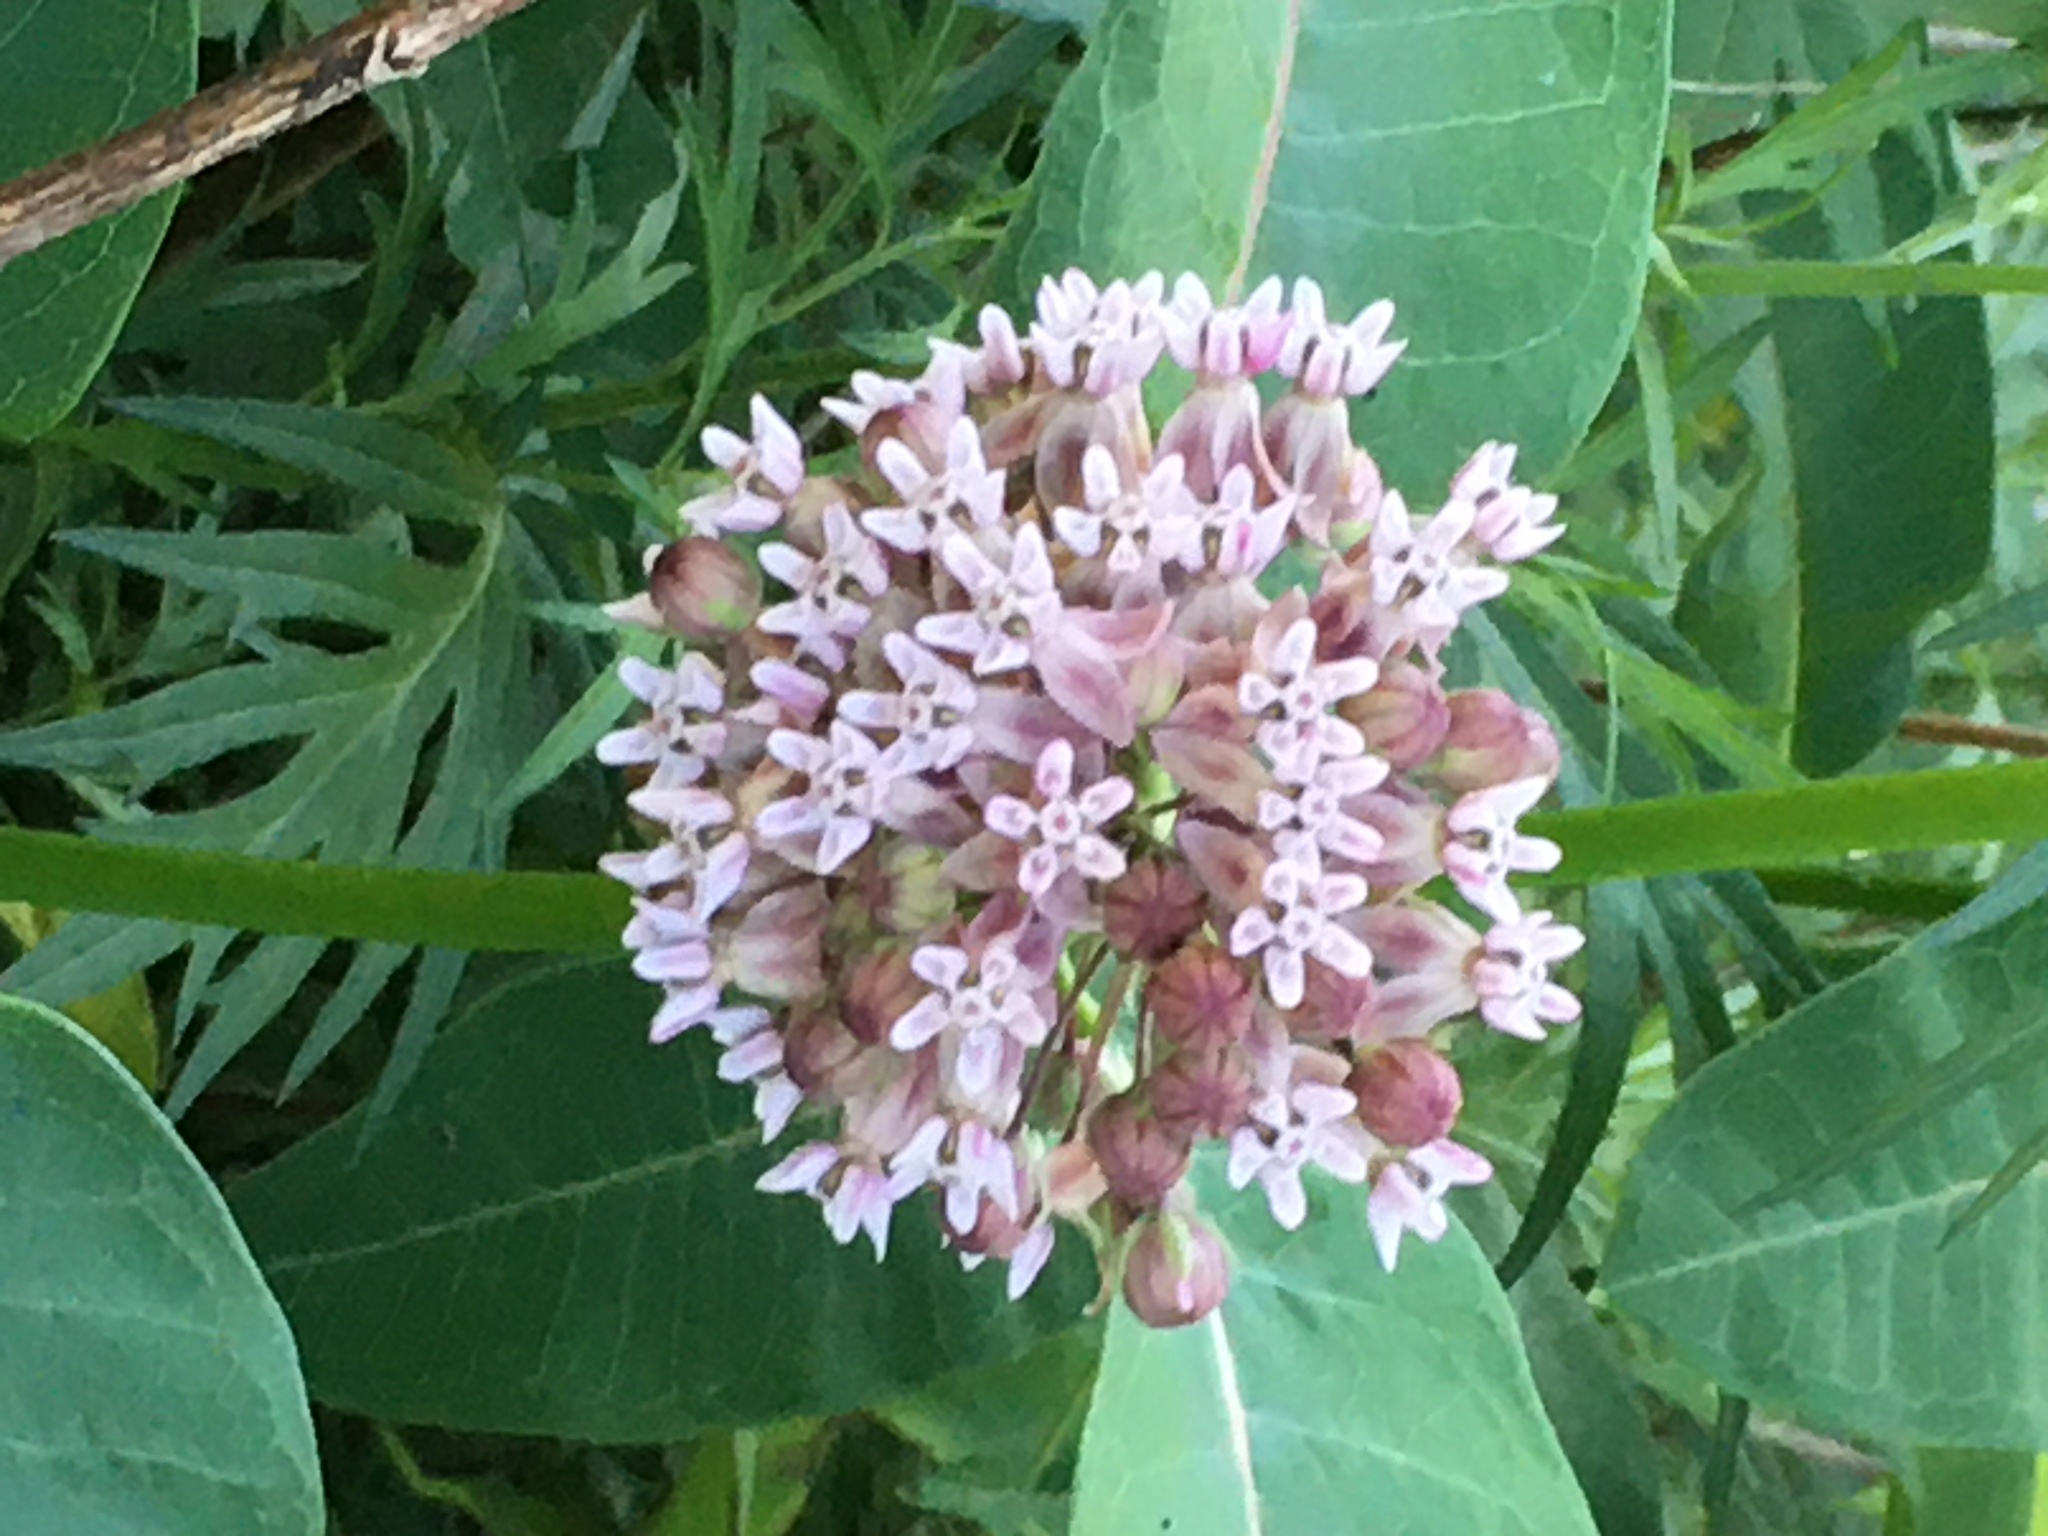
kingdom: Plantae
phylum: Tracheophyta
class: Magnoliopsida
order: Gentianales
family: Apocynaceae
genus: Asclepias
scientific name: Asclepias syriaca
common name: Common milkweed
